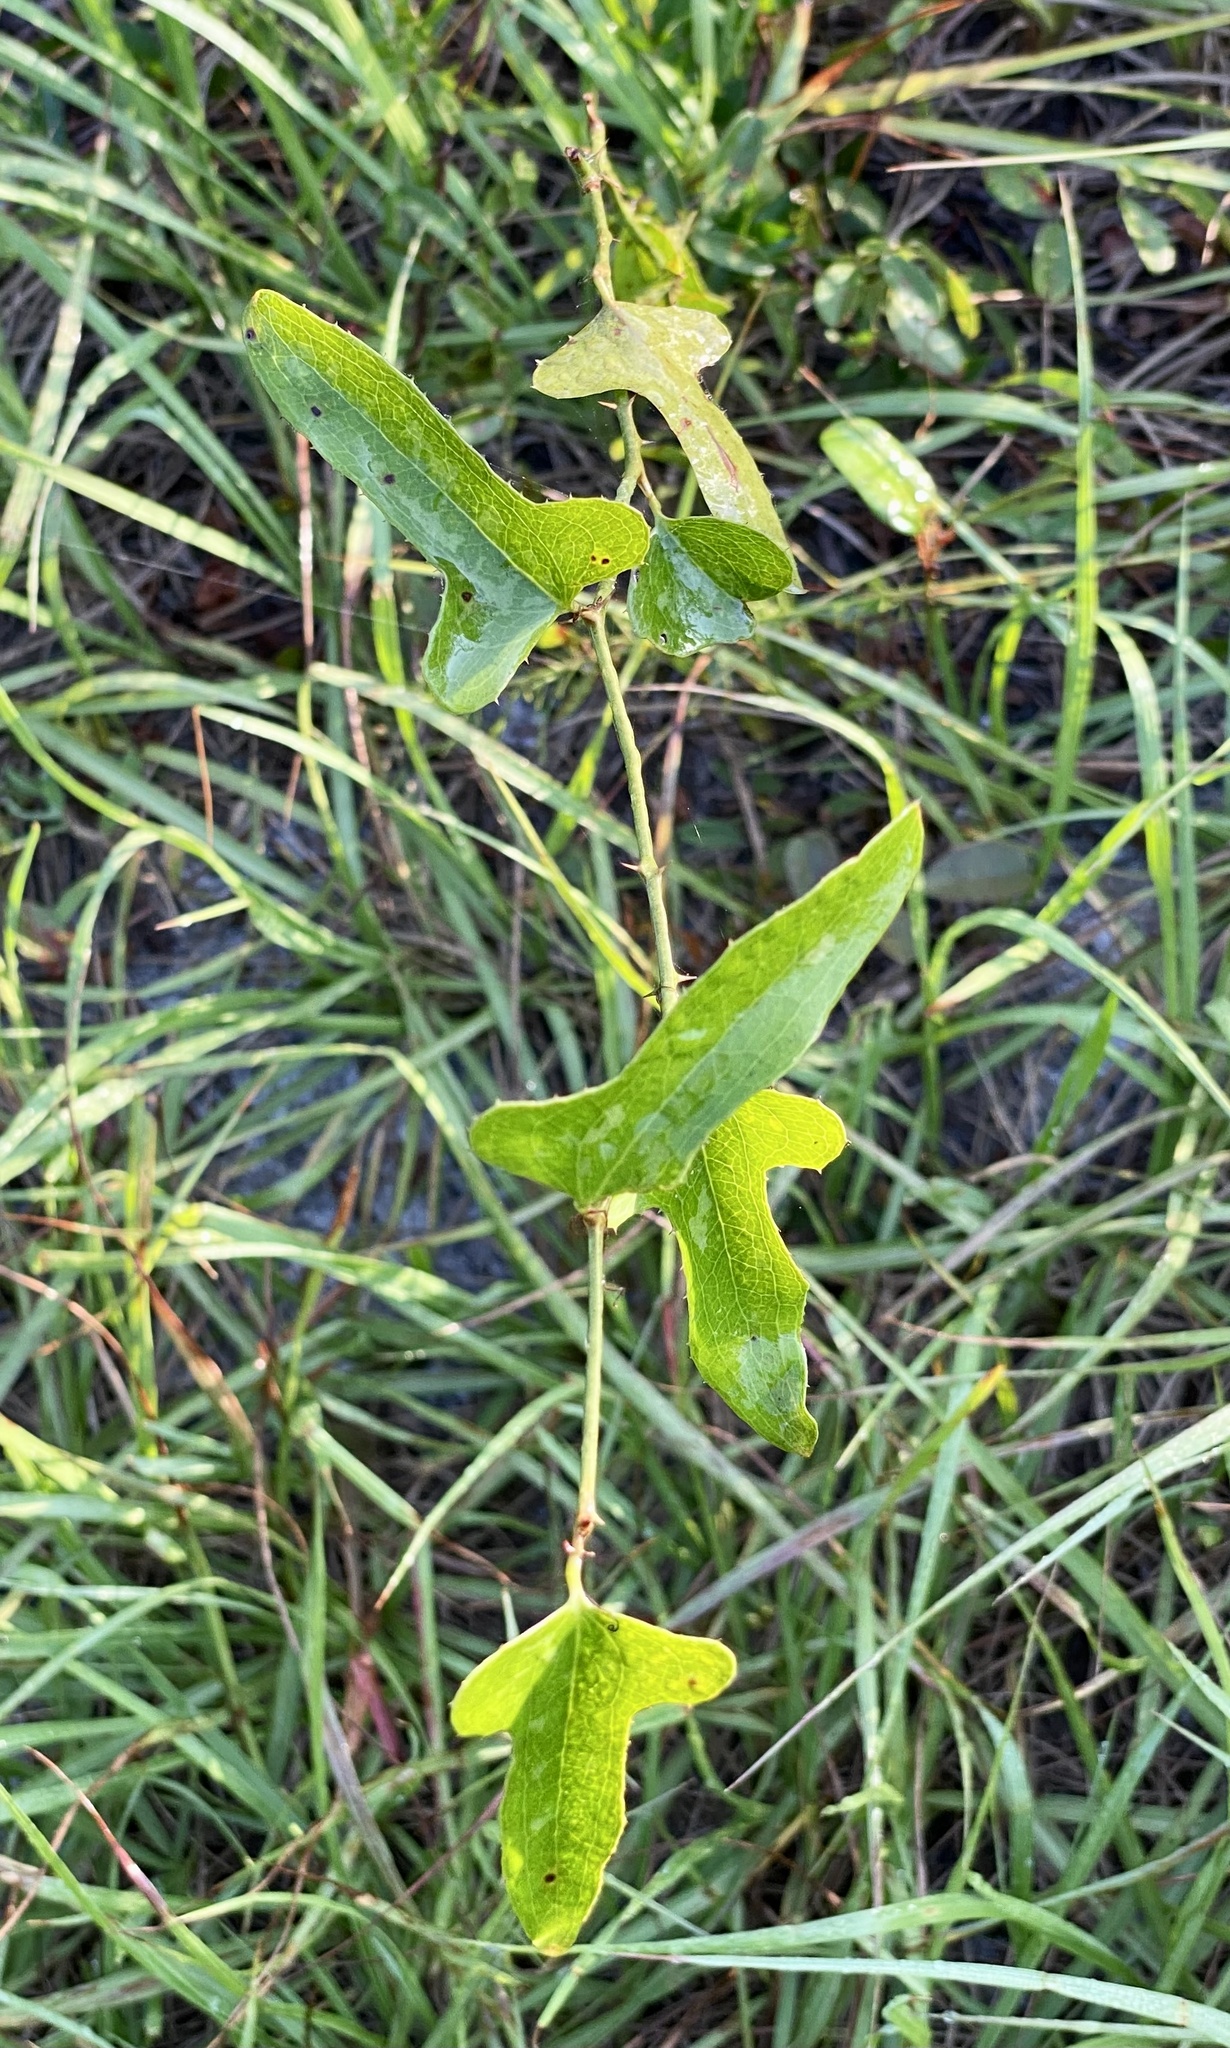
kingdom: Plantae
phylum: Tracheophyta
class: Liliopsida
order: Liliales
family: Smilacaceae
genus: Smilax
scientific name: Smilax bona-nox
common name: Catbrier
